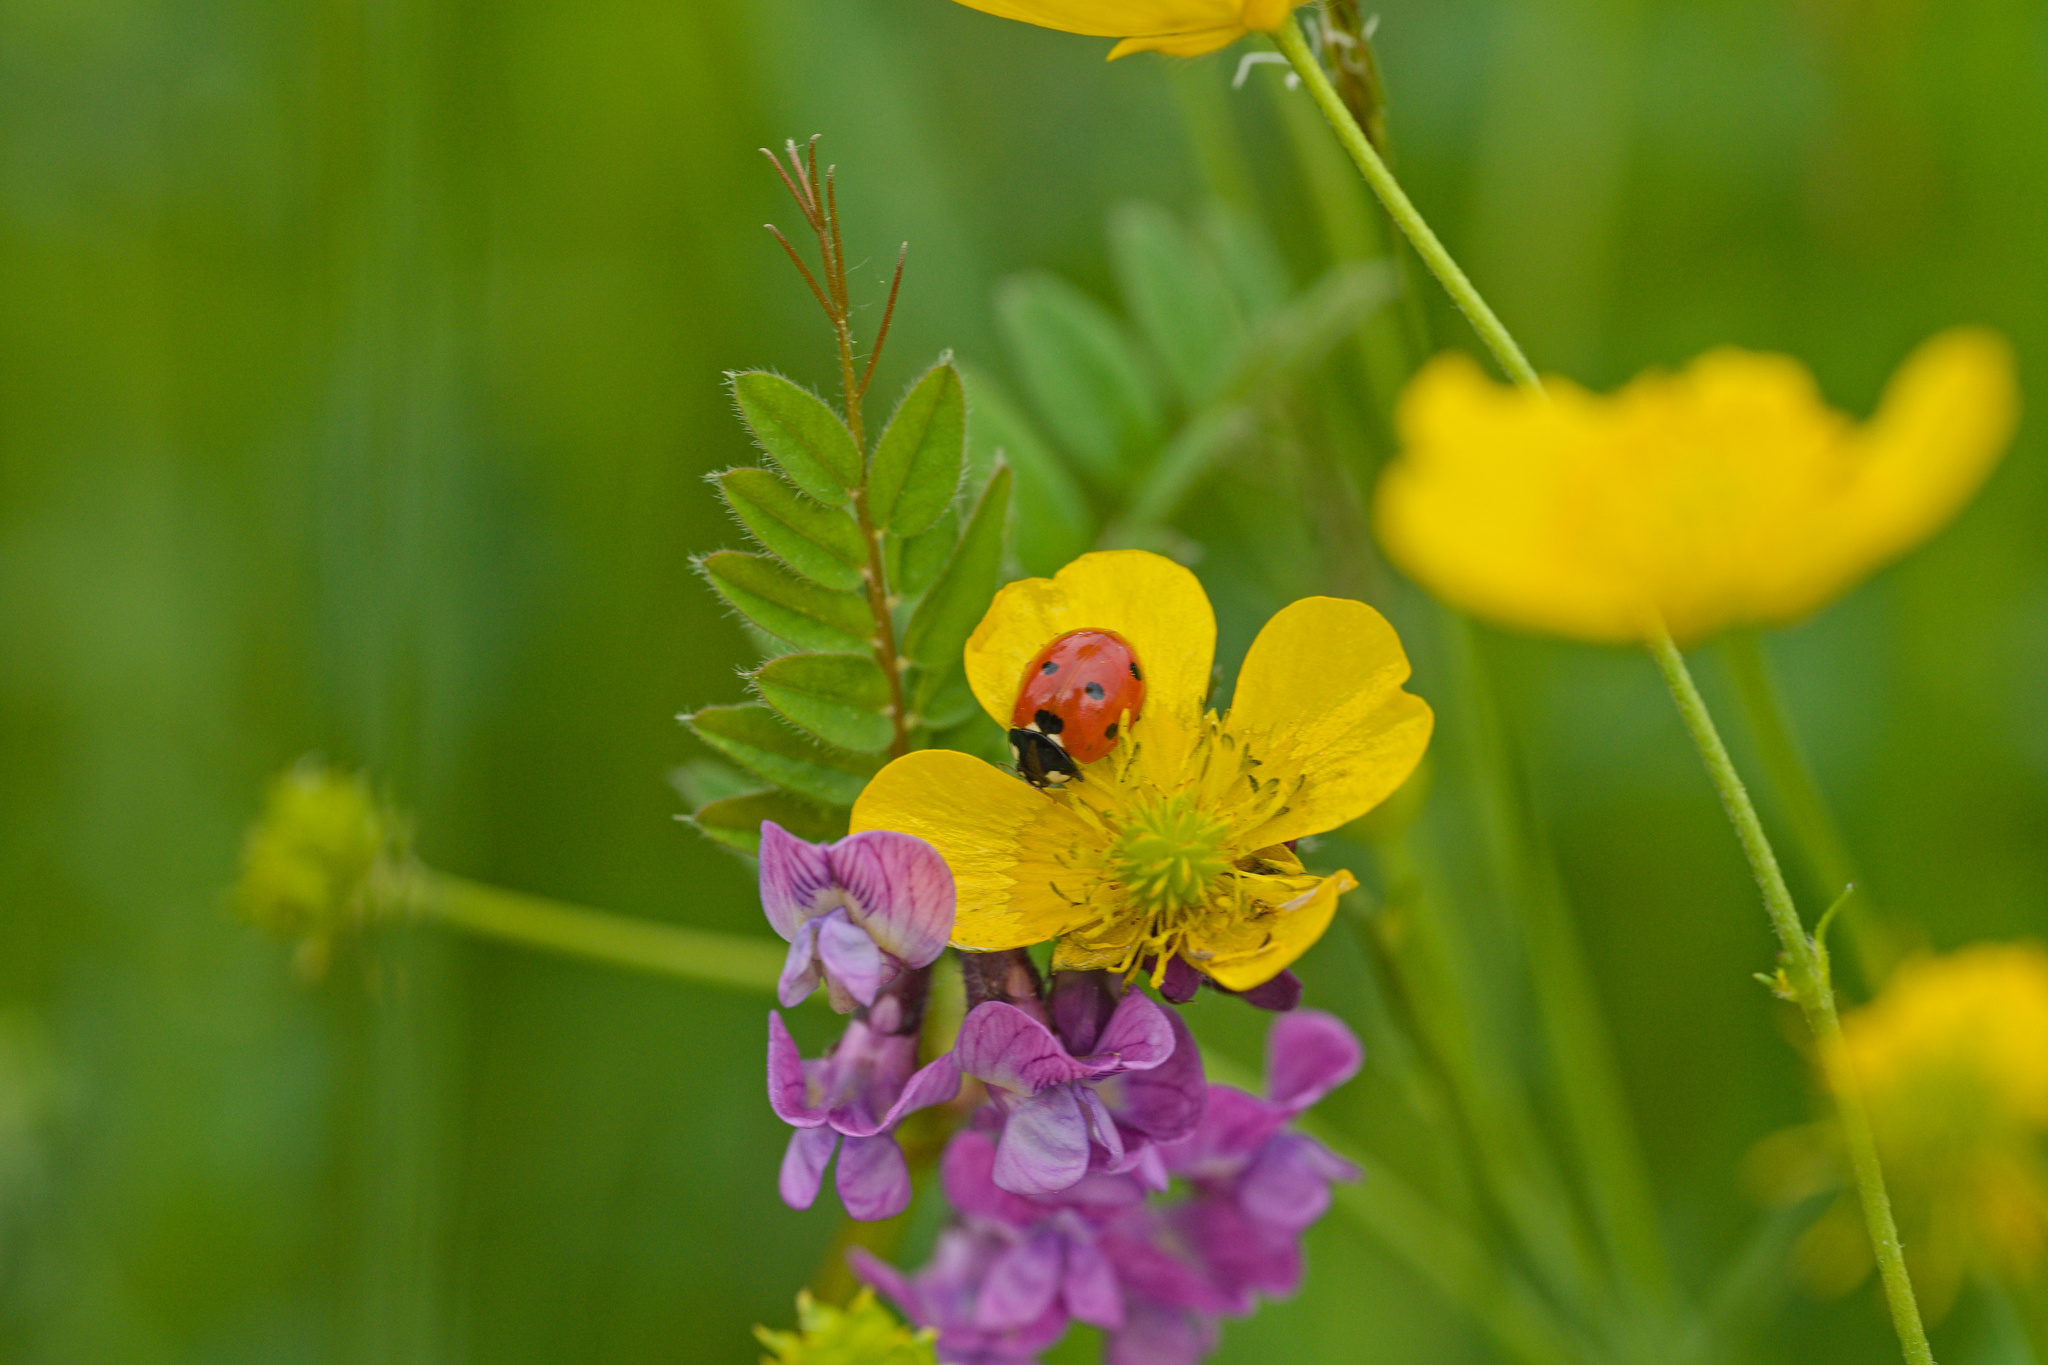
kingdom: Animalia
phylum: Arthropoda
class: Insecta
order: Coleoptera
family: Coccinellidae
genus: Coccinella
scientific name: Coccinella septempunctata
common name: Sevenspotted lady beetle
